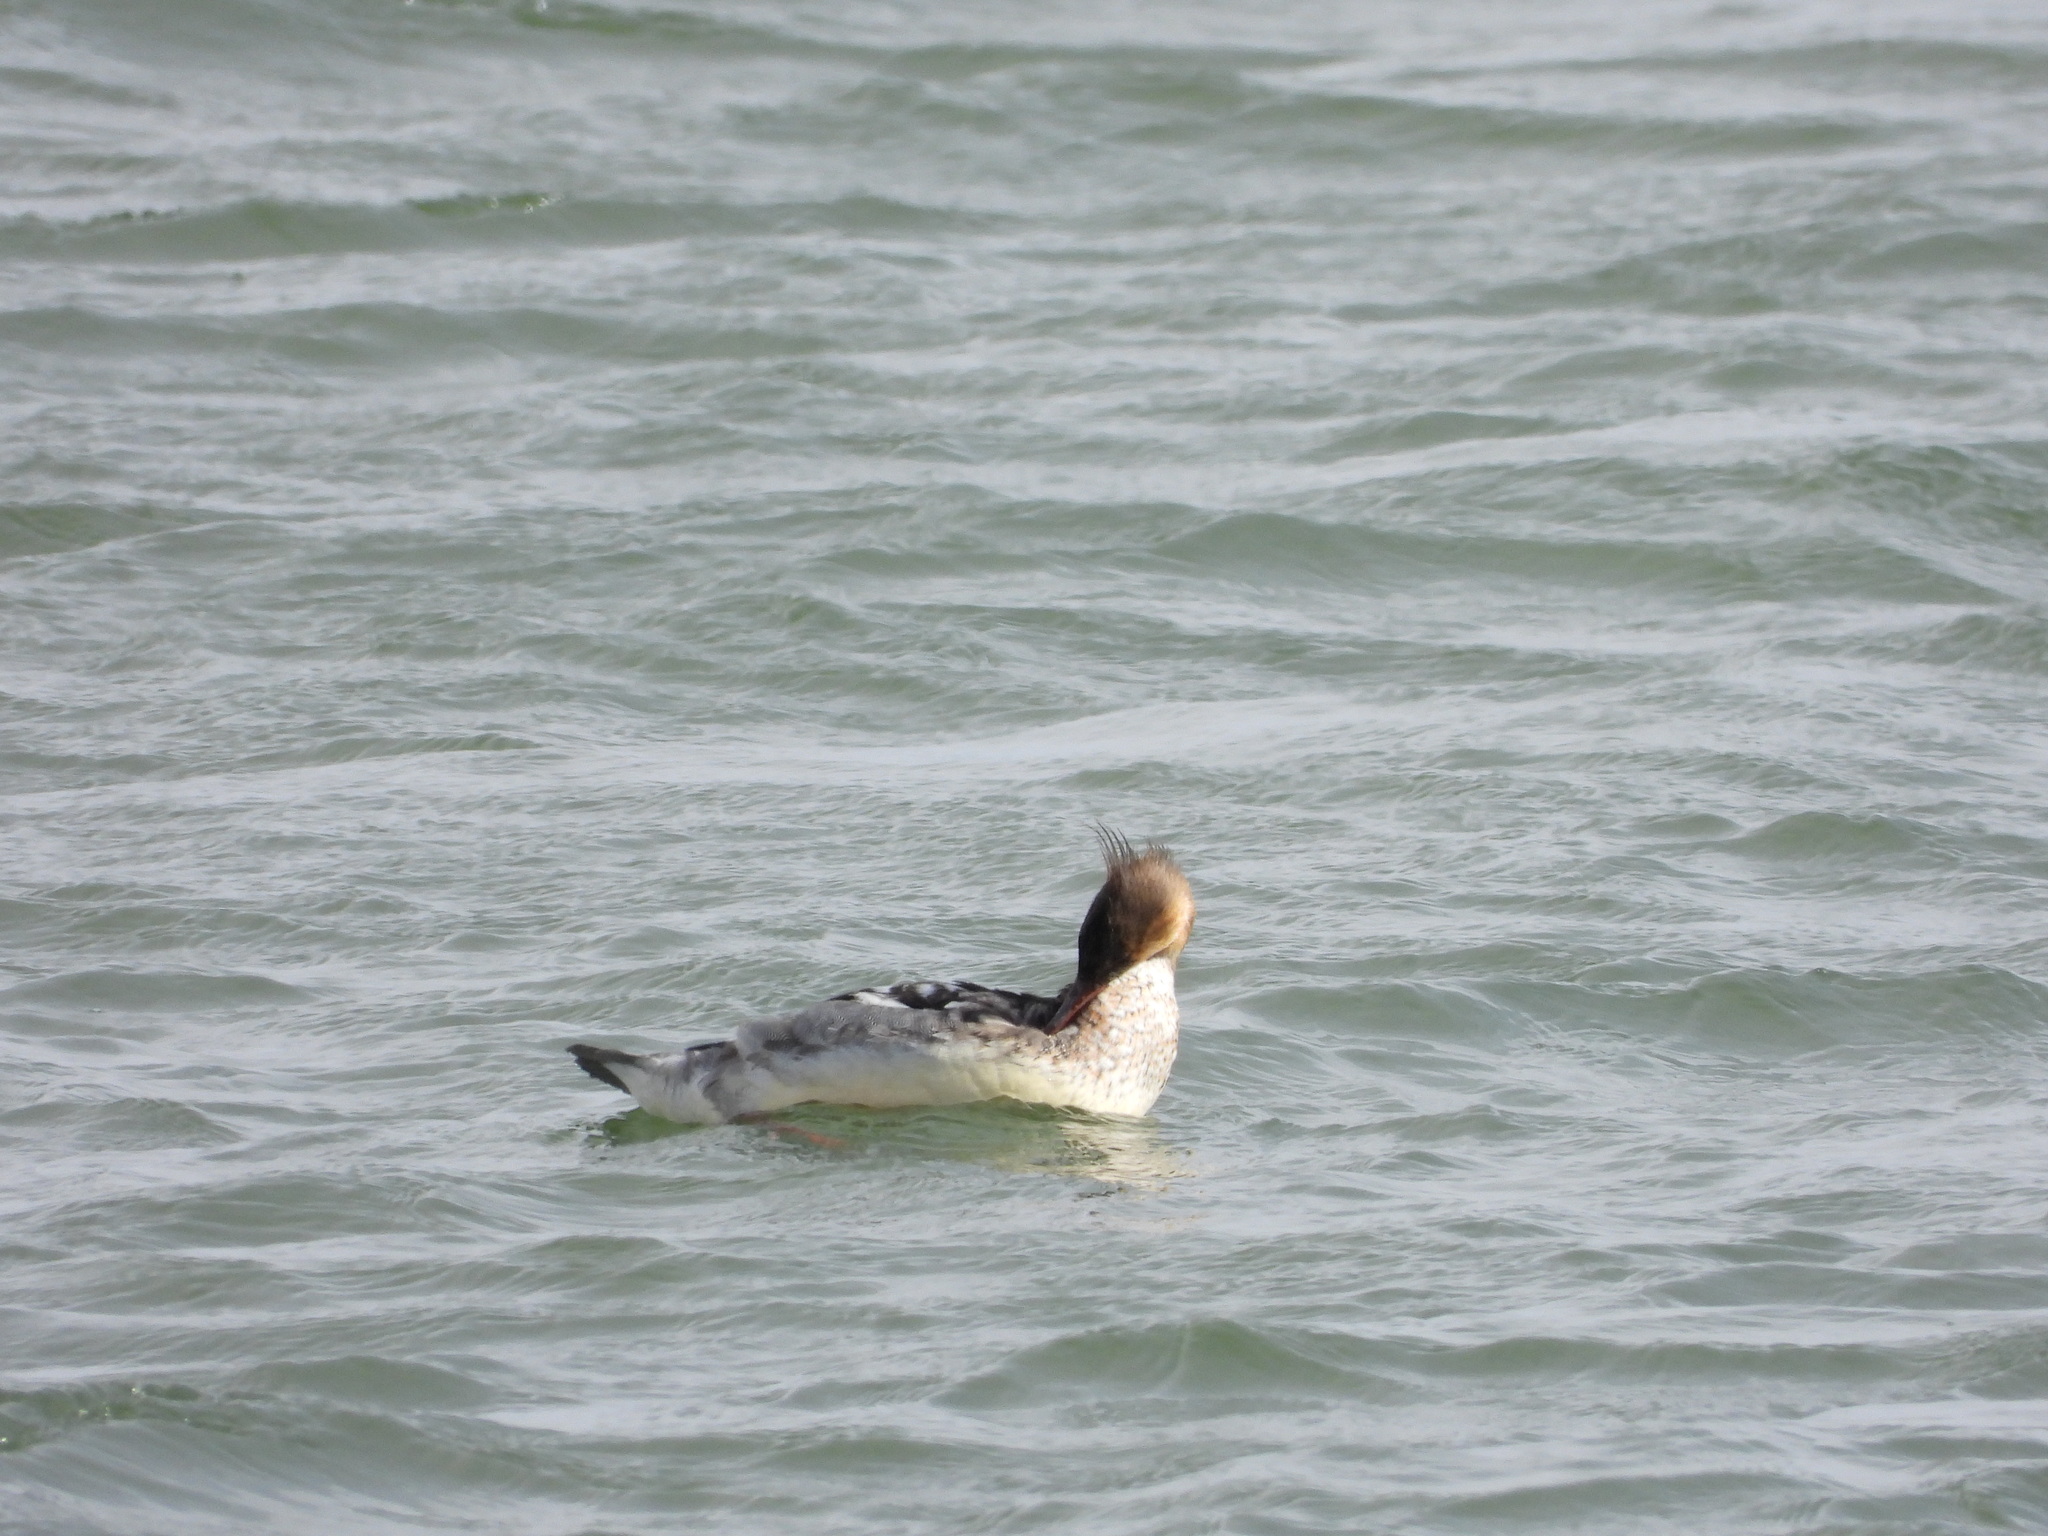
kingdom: Animalia
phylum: Chordata
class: Aves
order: Anseriformes
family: Anatidae
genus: Mergus
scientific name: Mergus serrator
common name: Red-breasted merganser
